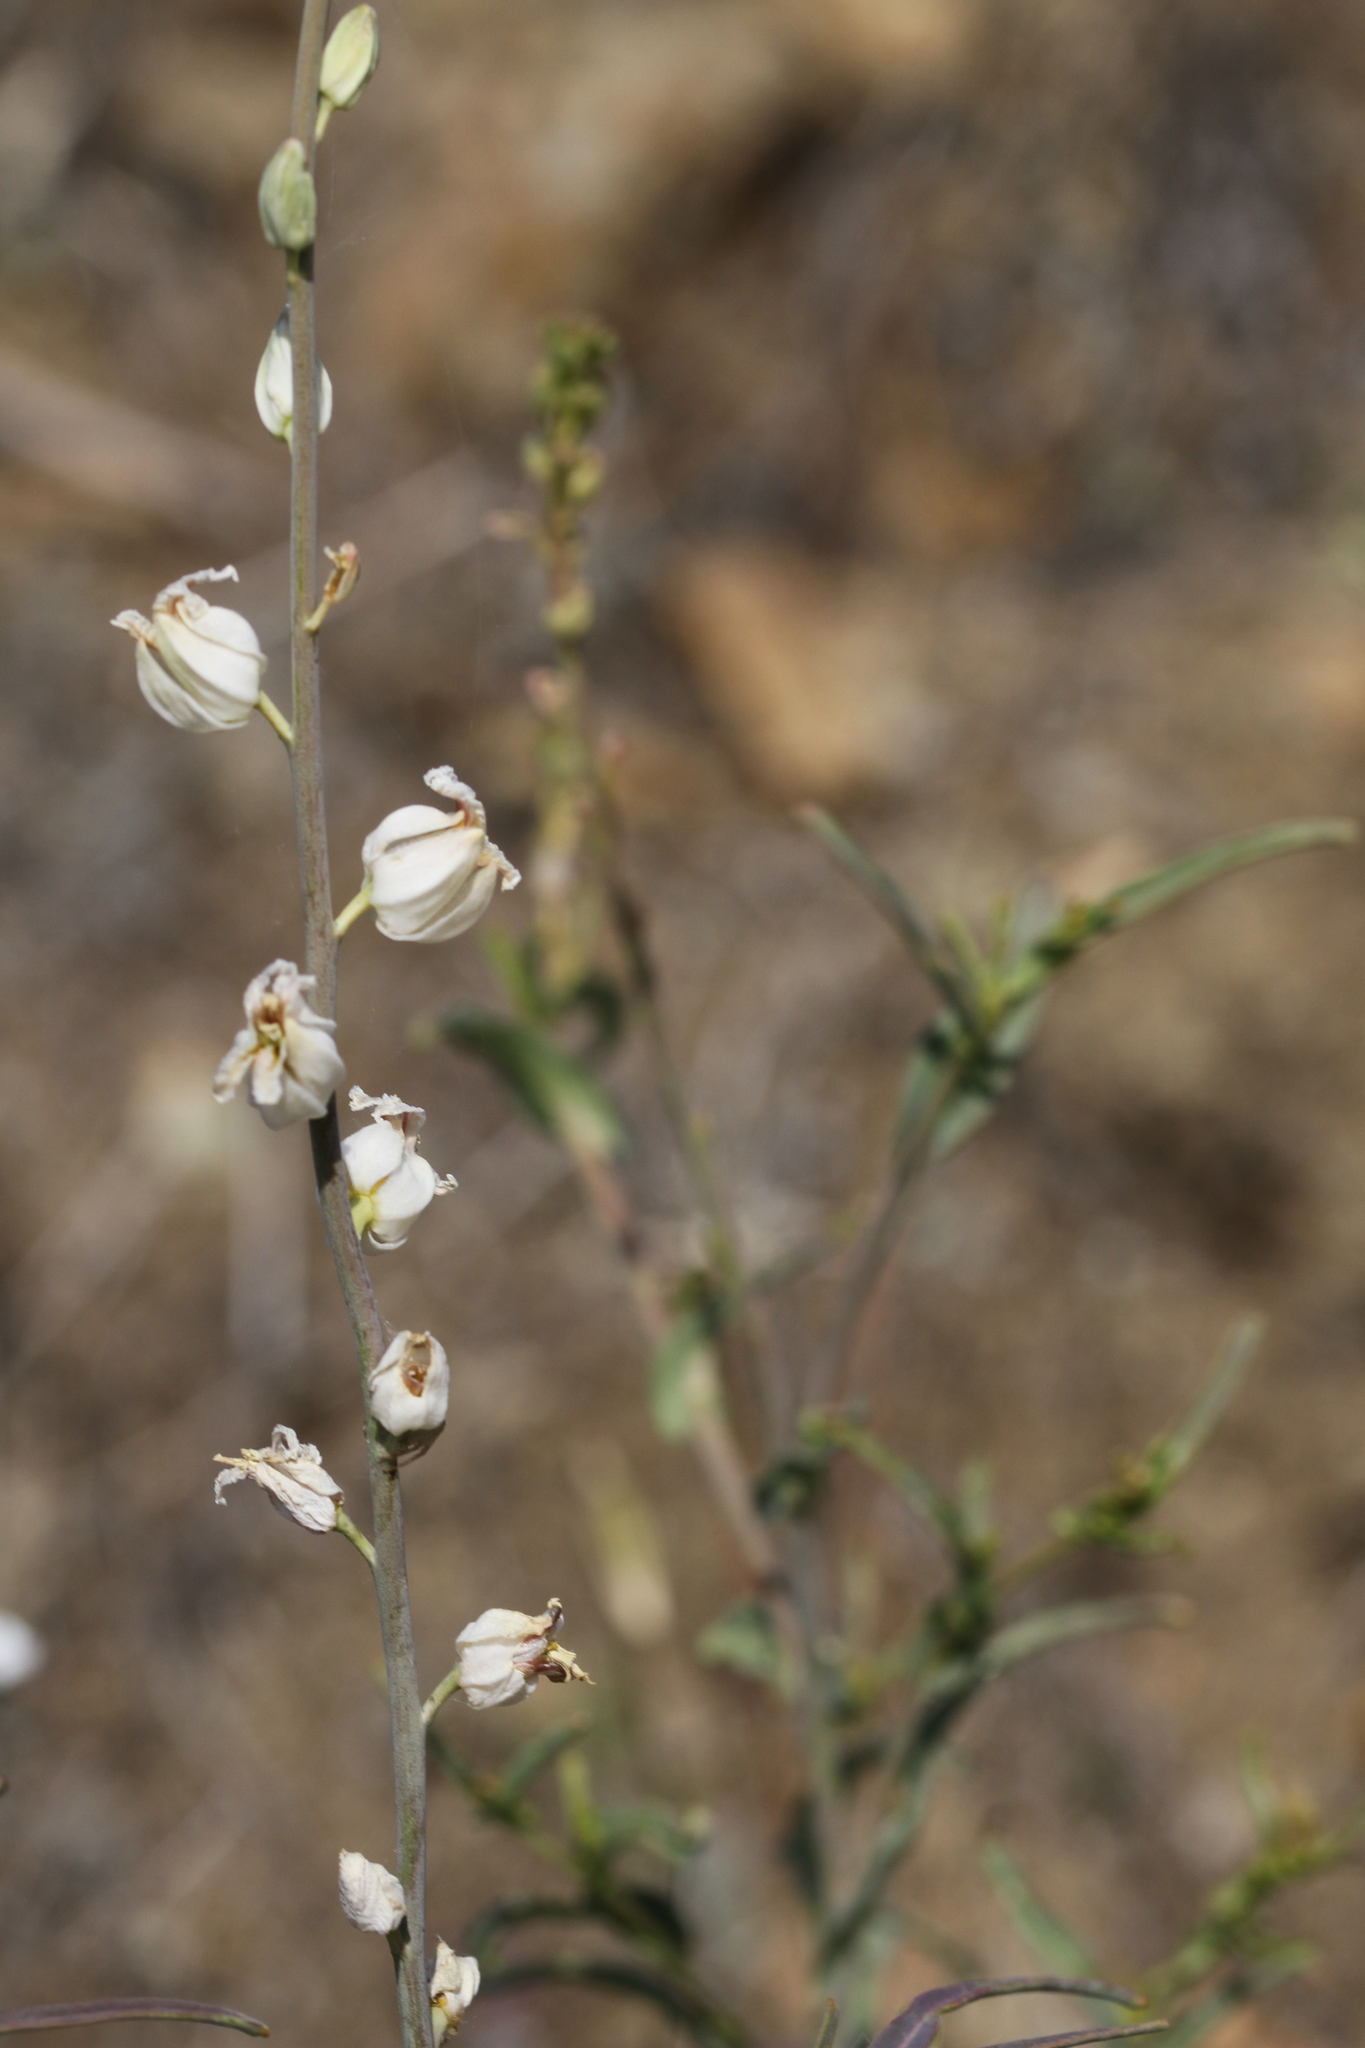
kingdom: Plantae
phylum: Tracheophyta
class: Magnoliopsida
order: Brassicales
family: Brassicaceae
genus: Streptanthus
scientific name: Streptanthus glandulosus
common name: Jewel-flower
